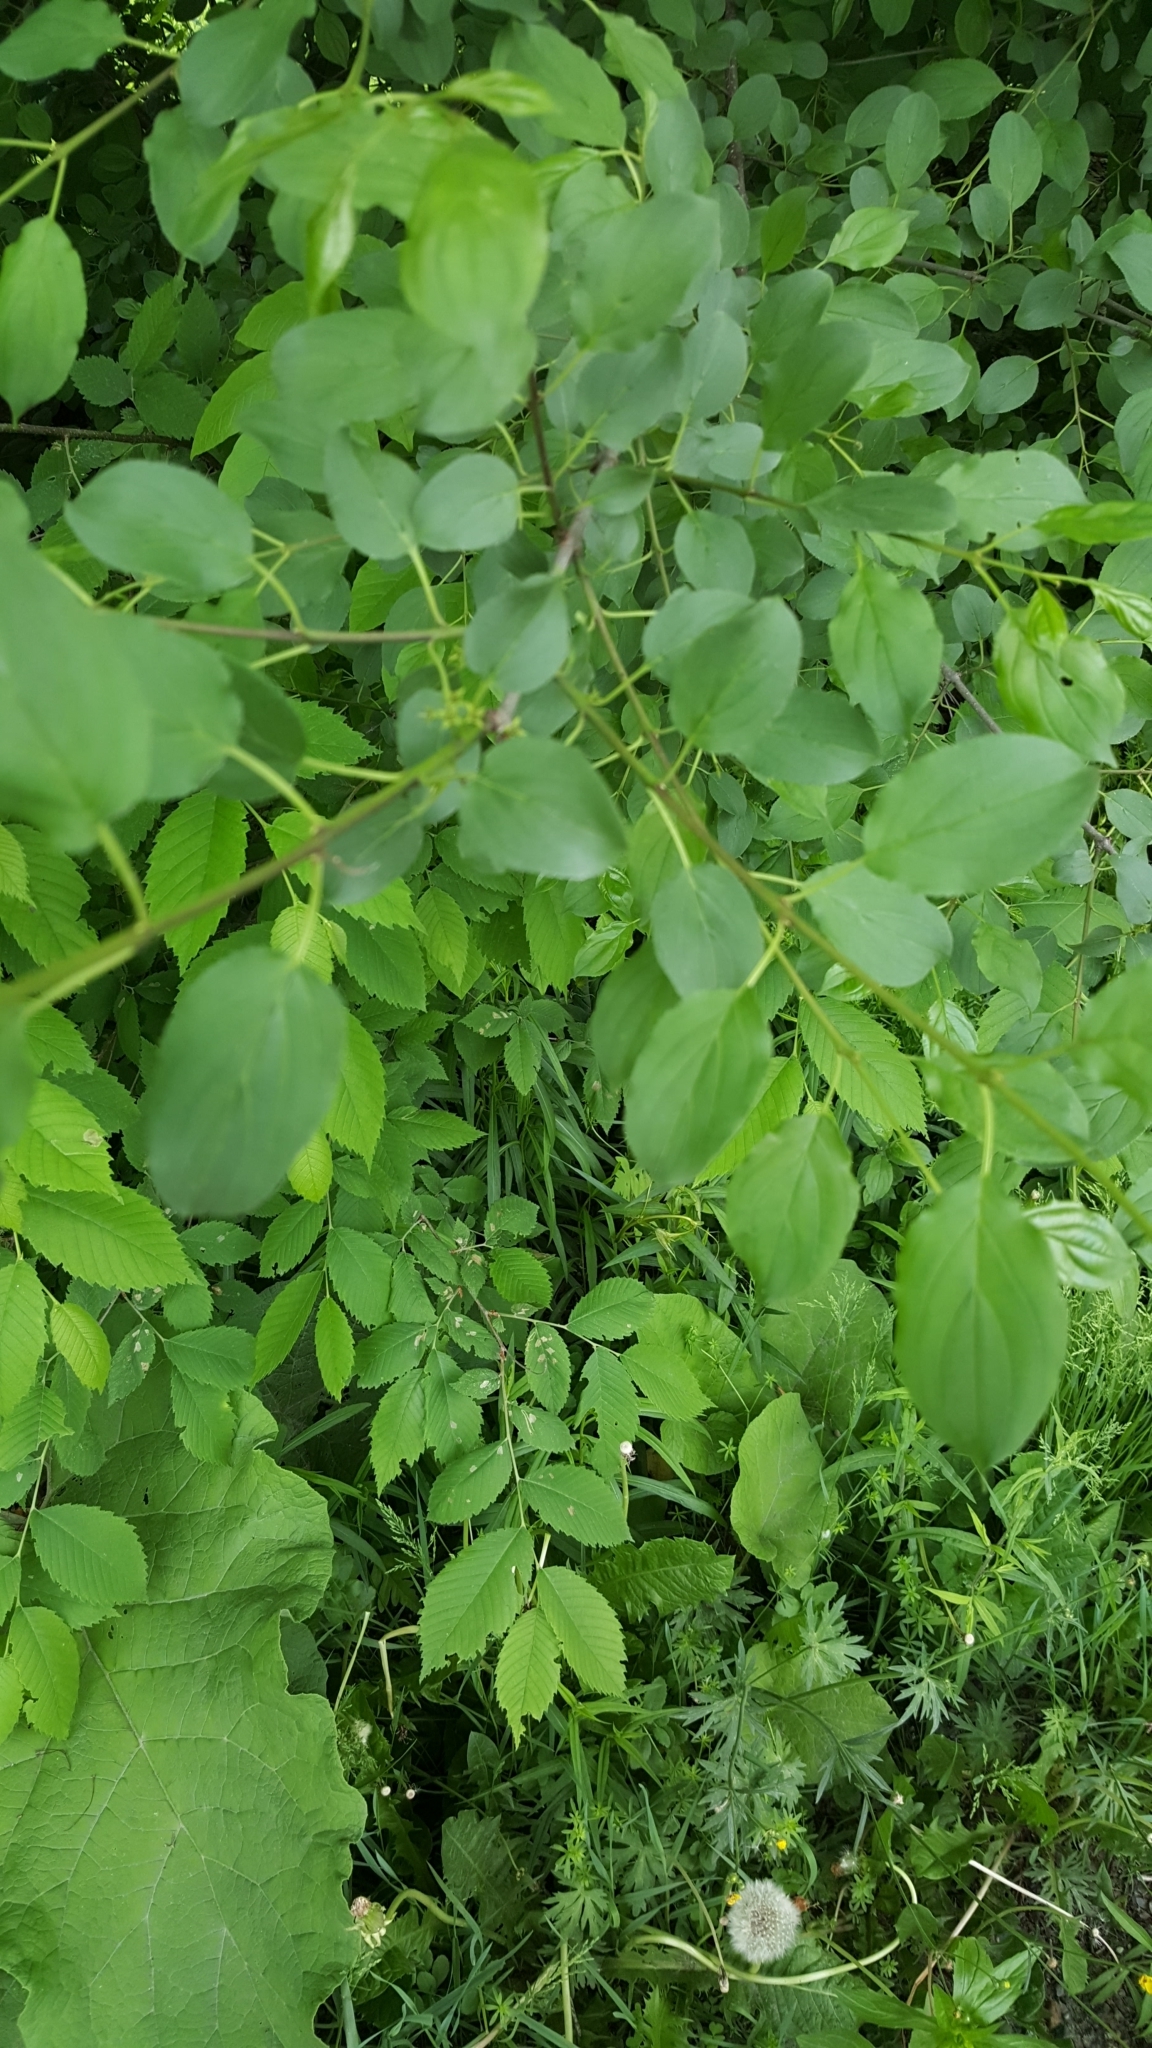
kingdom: Plantae
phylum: Tracheophyta
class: Magnoliopsida
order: Rosales
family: Rhamnaceae
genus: Rhamnus
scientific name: Rhamnus cathartica
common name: Common buckthorn
